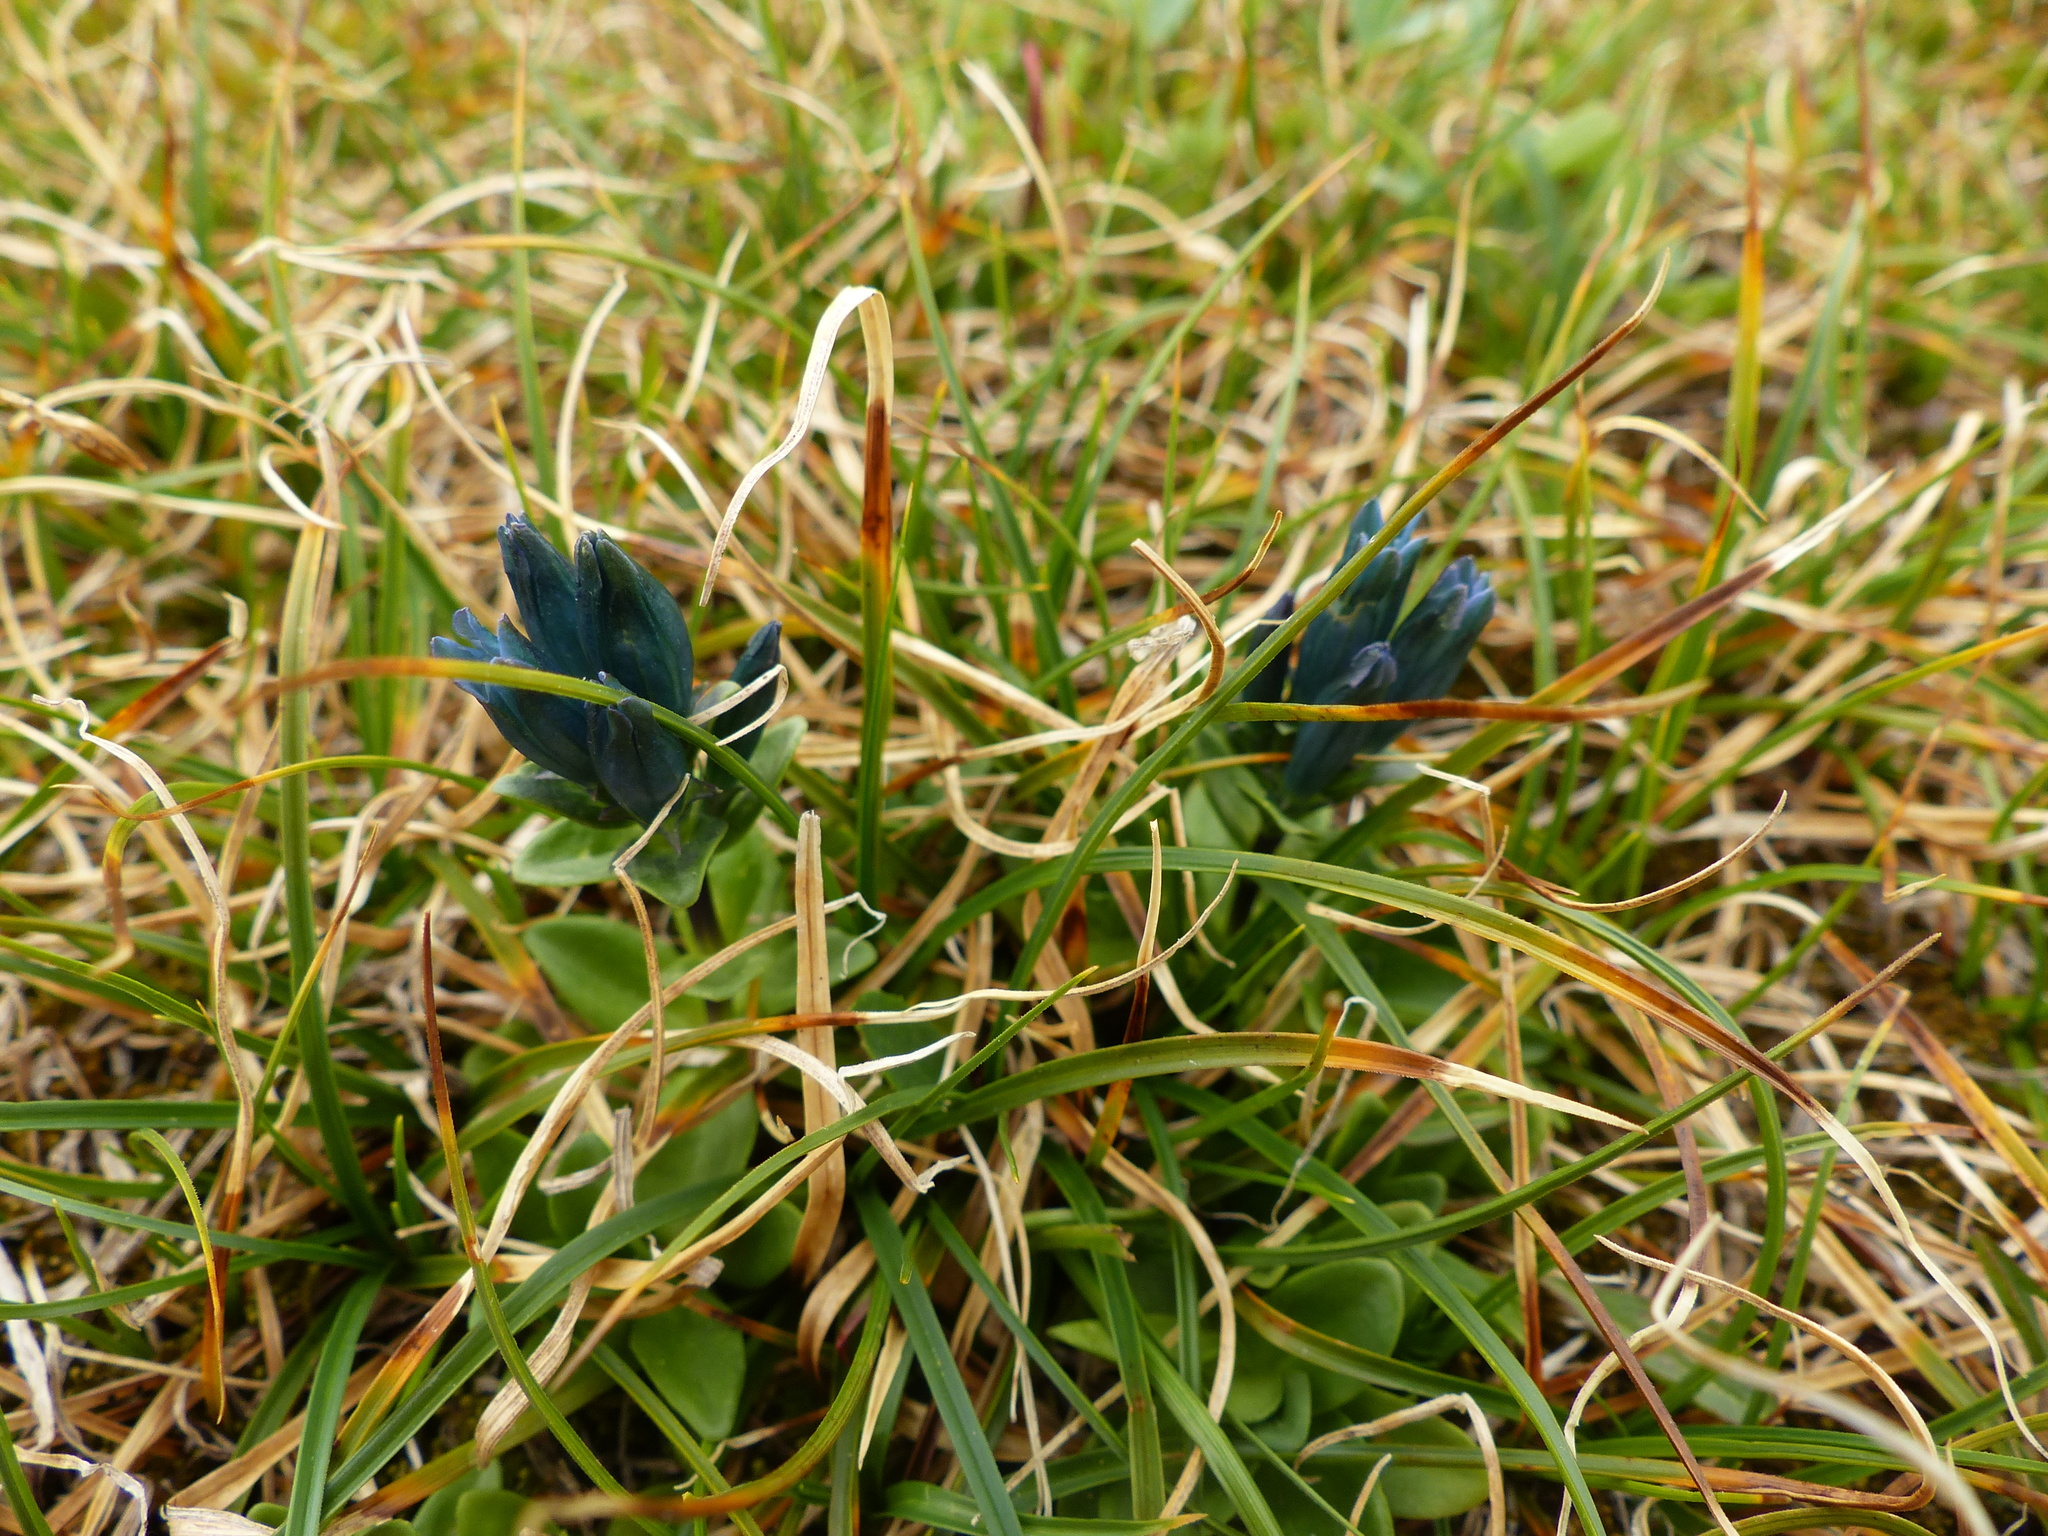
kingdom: Plantae
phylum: Tracheophyta
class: Magnoliopsida
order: Gentianales
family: Gentianaceae
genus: Gentiana
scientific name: Gentiana glauca
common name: Alpine gentian
